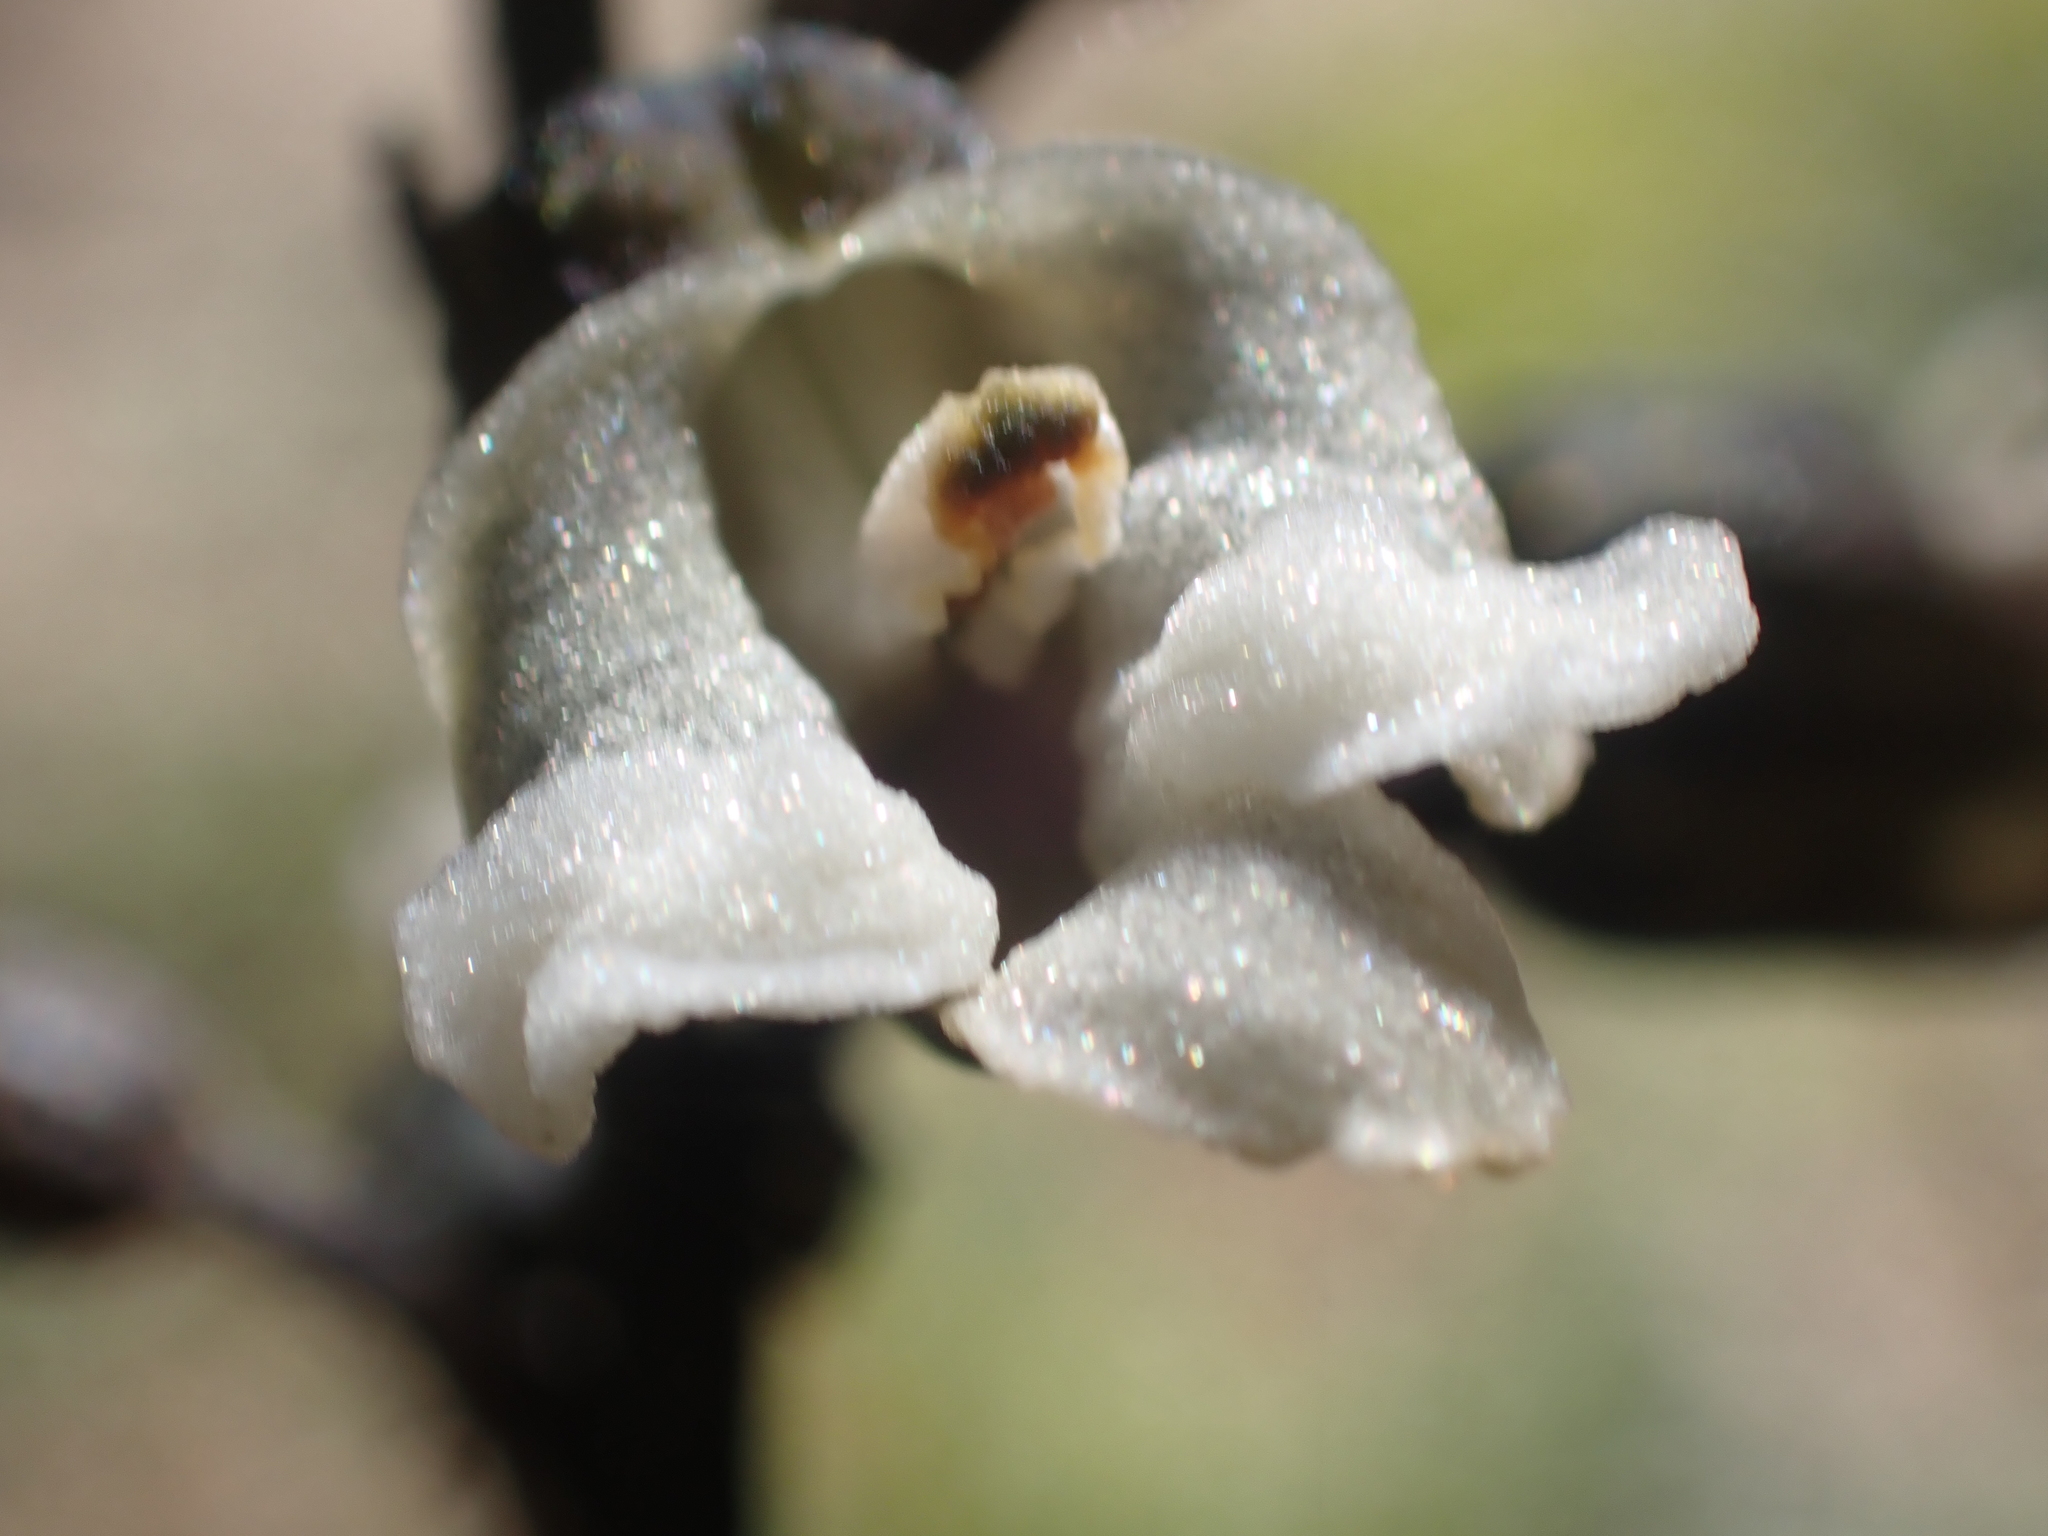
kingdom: Plantae
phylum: Tracheophyta
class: Liliopsida
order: Asparagales
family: Orchidaceae
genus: Gastrodia
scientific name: Gastrodia cunninghamii
